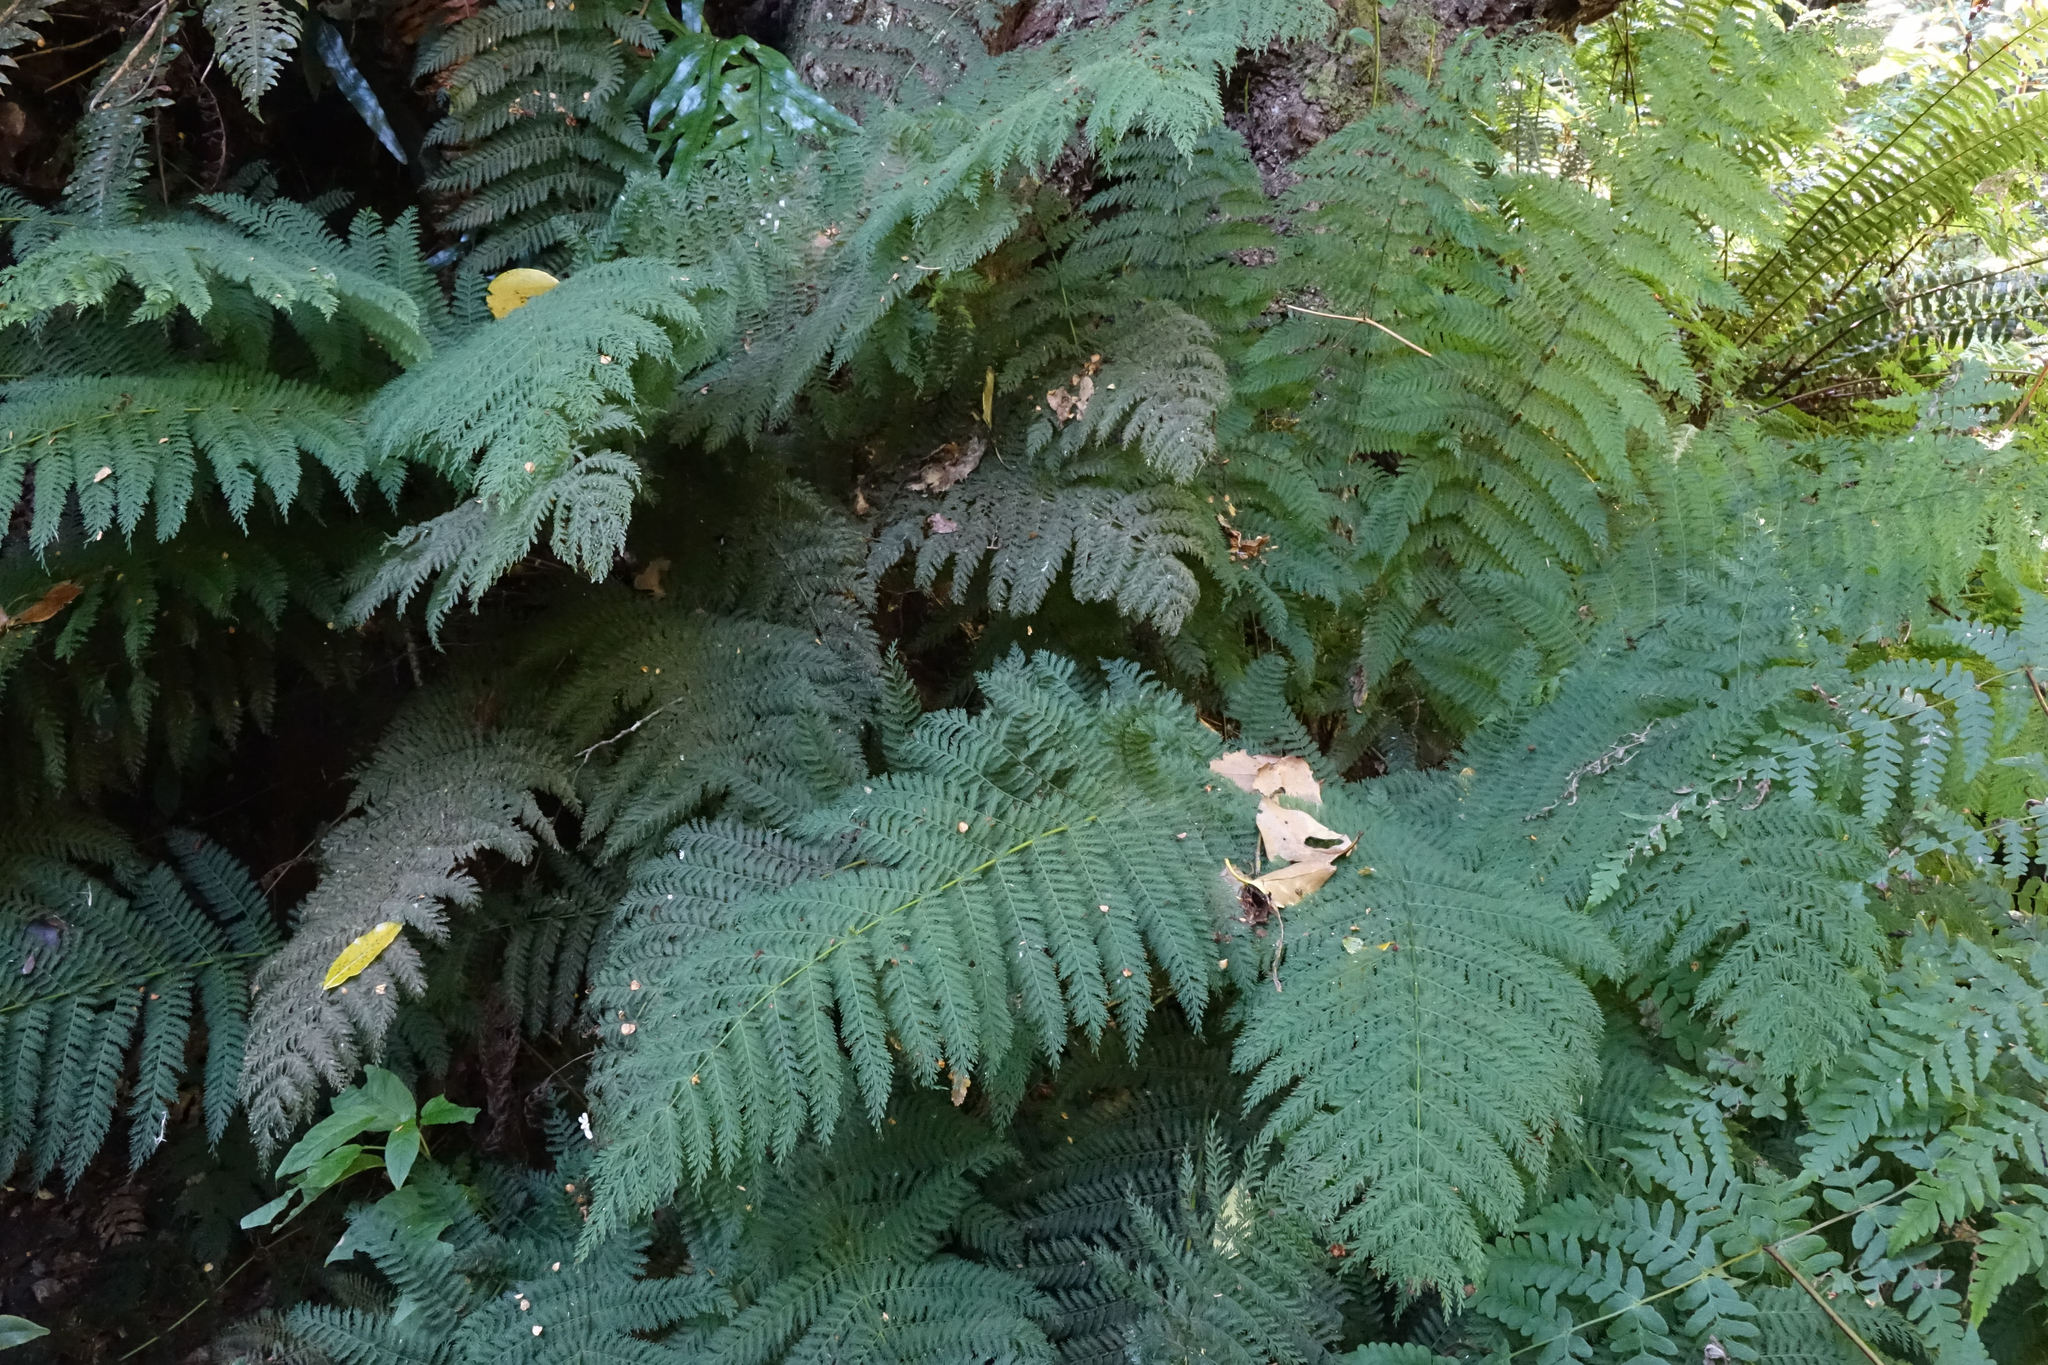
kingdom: Plantae
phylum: Tracheophyta
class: Polypodiopsida
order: Osmundales
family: Osmundaceae
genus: Leptopteris
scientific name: Leptopteris hymenophylloides
